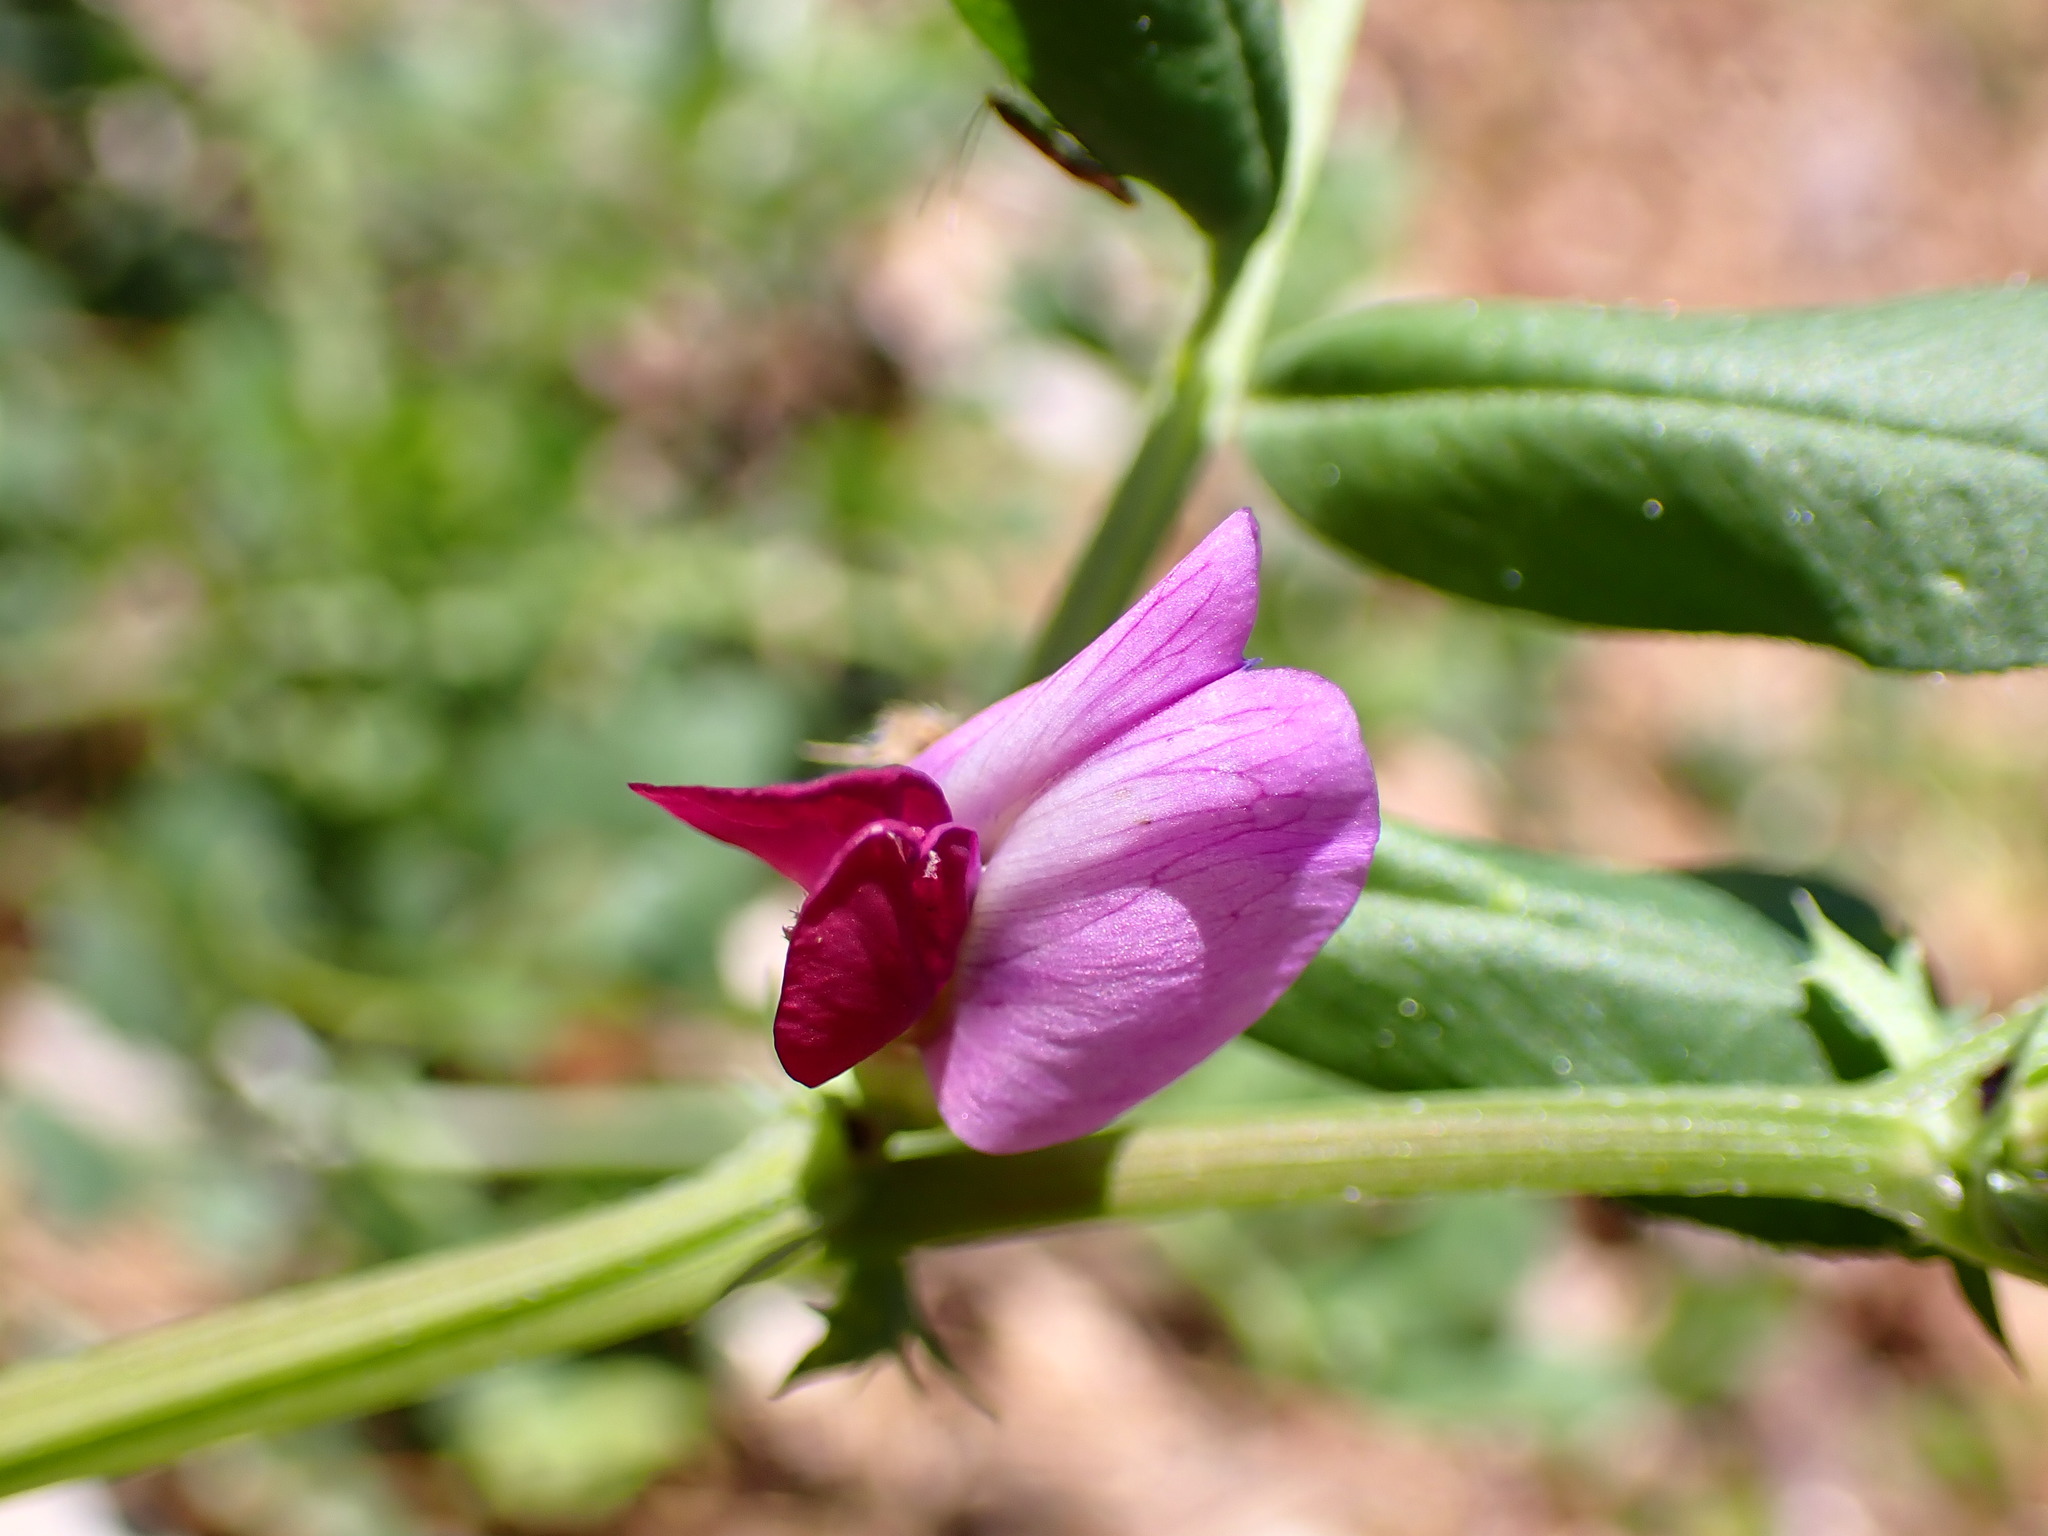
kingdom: Plantae
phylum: Tracheophyta
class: Magnoliopsida
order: Fabales
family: Fabaceae
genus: Vicia
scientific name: Vicia sativa
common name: Garden vetch
